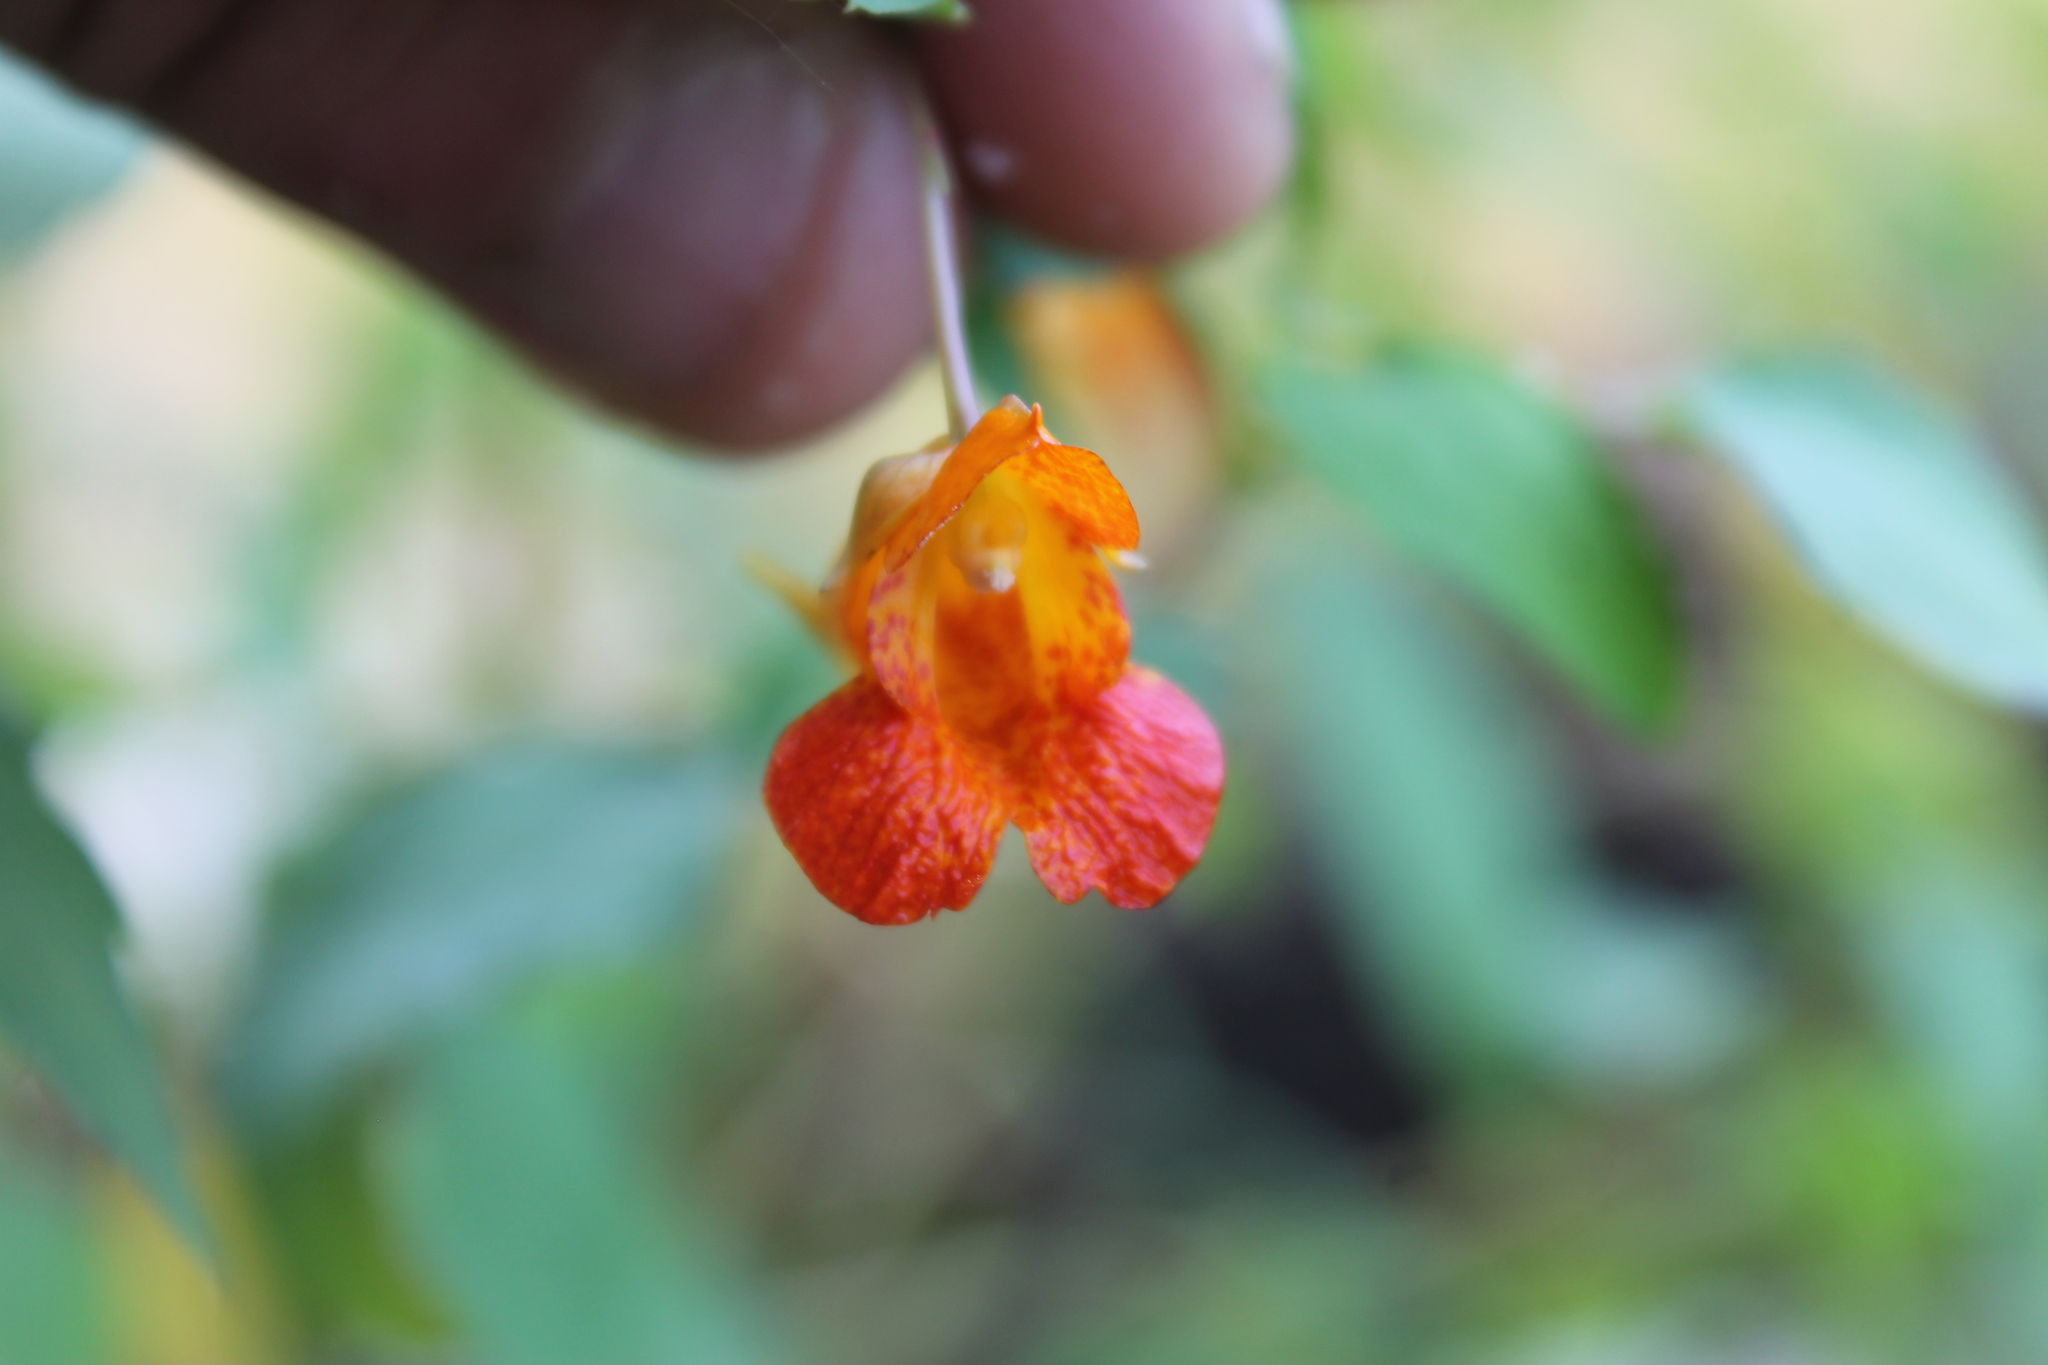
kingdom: Plantae
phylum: Tracheophyta
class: Magnoliopsida
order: Ericales
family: Balsaminaceae
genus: Impatiens
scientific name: Impatiens capensis
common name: Orange balsam
